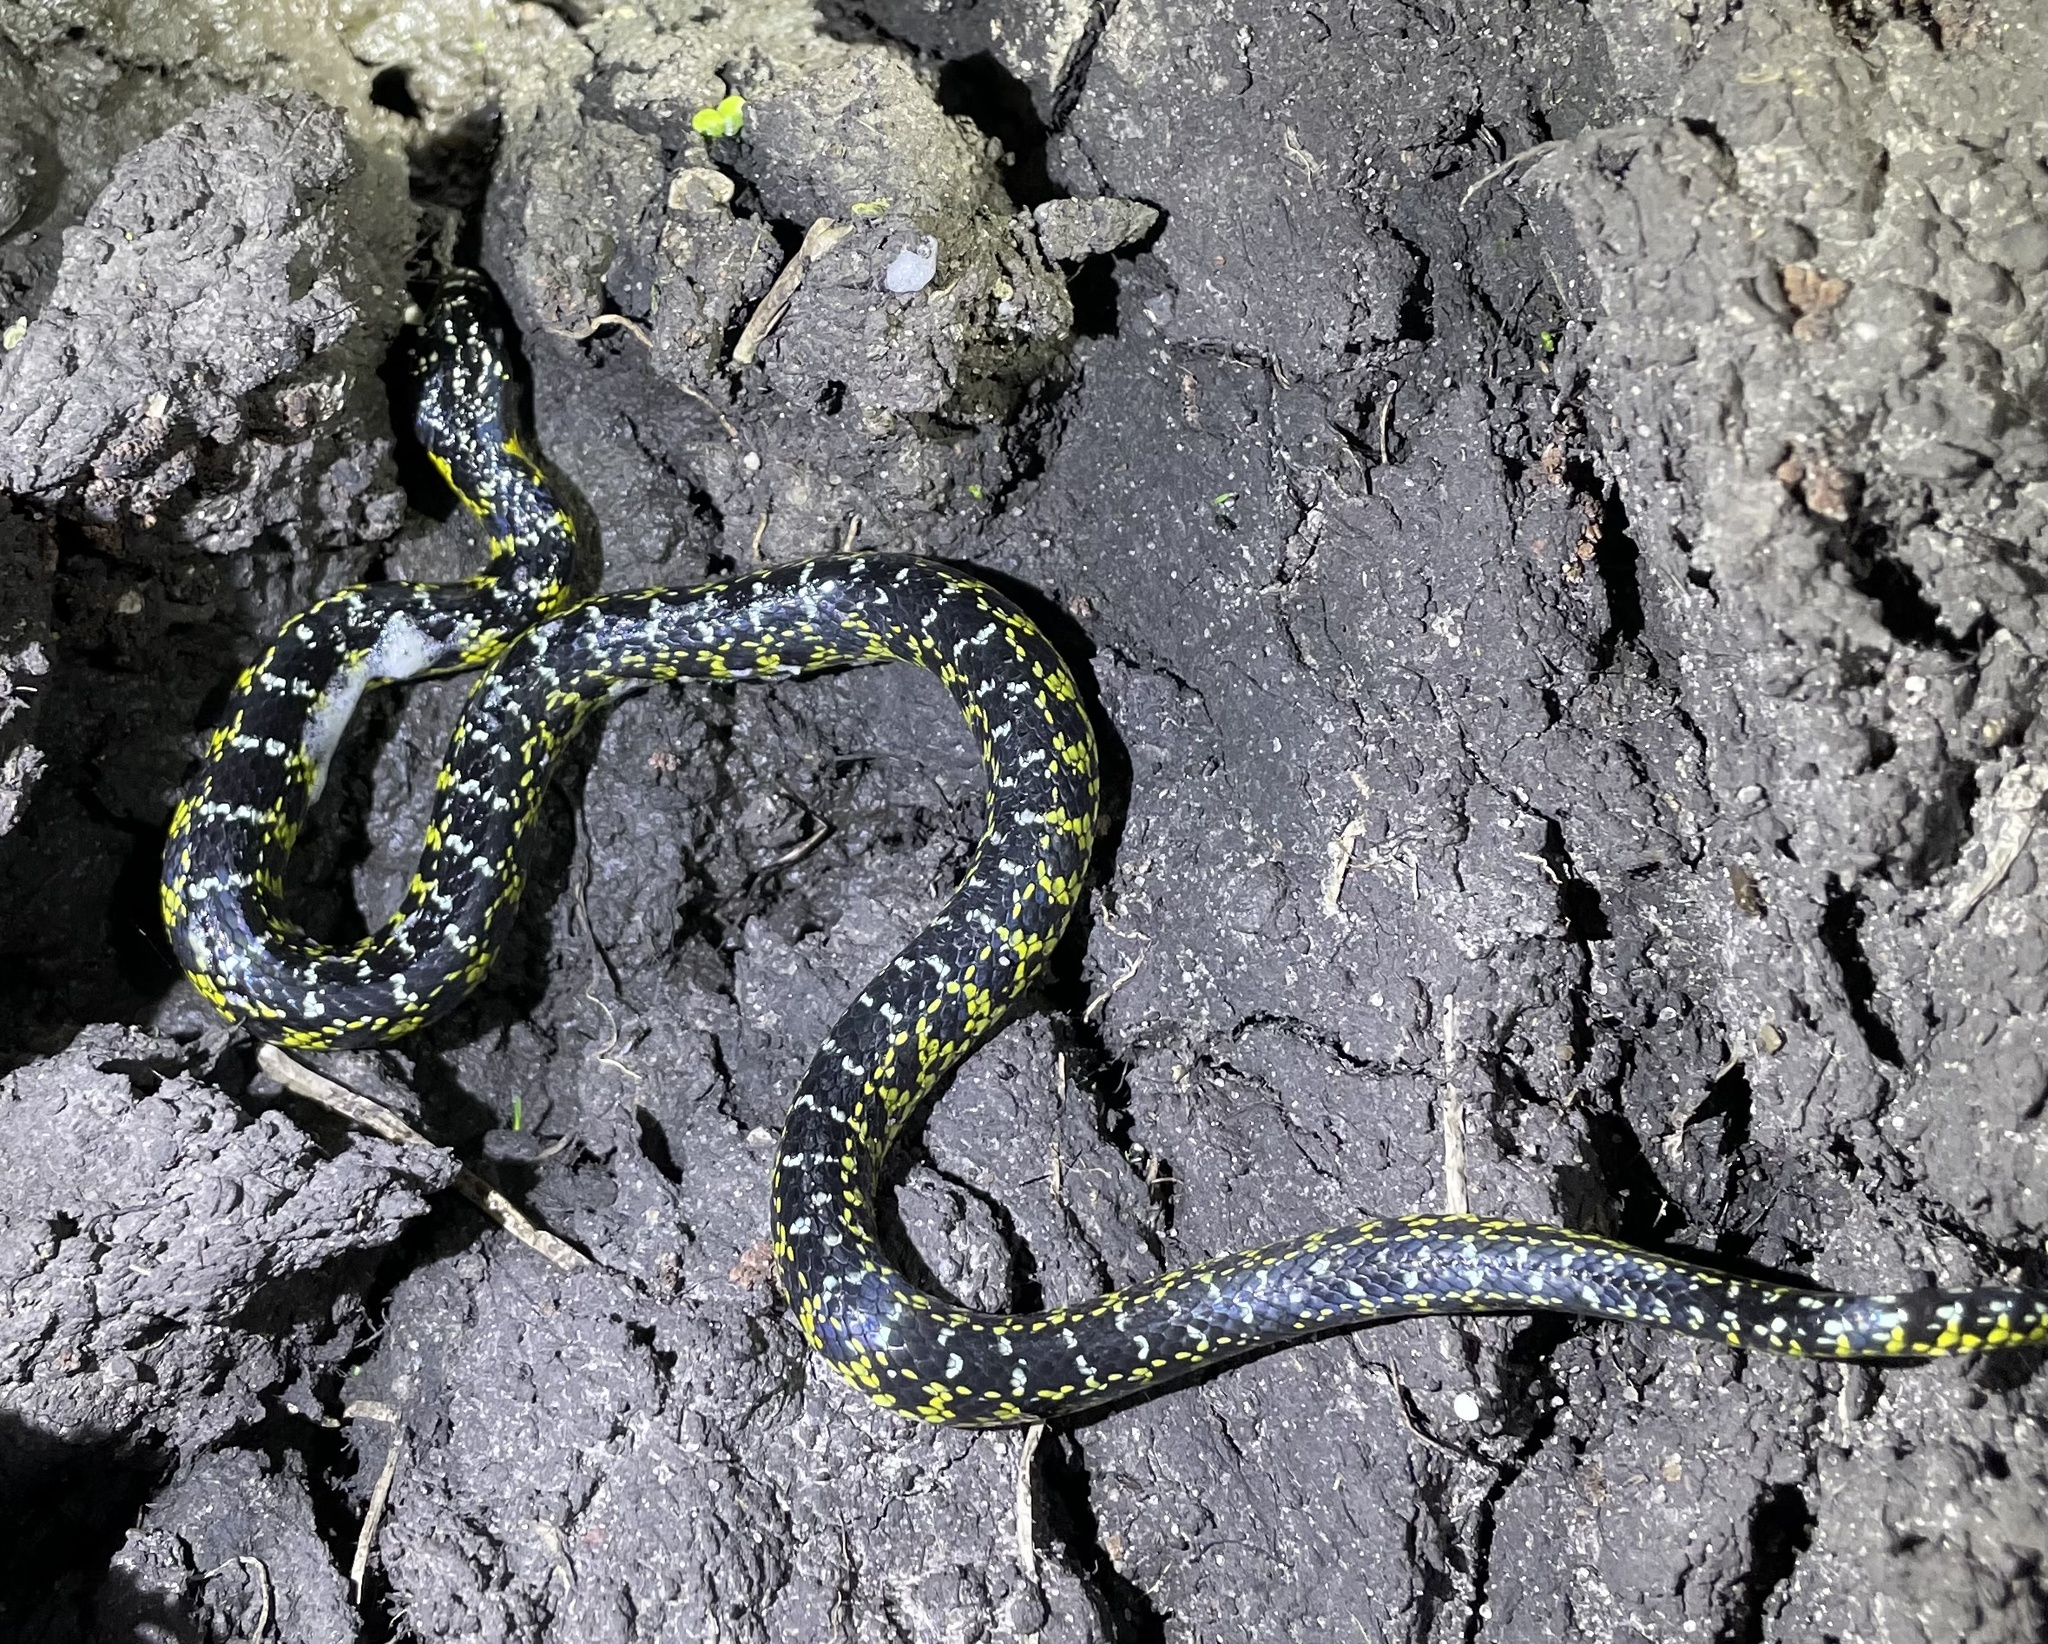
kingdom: Animalia
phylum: Chordata
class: Squamata
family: Colubridae
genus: Erythrolamprus
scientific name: Erythrolamprus poecilogyrus
